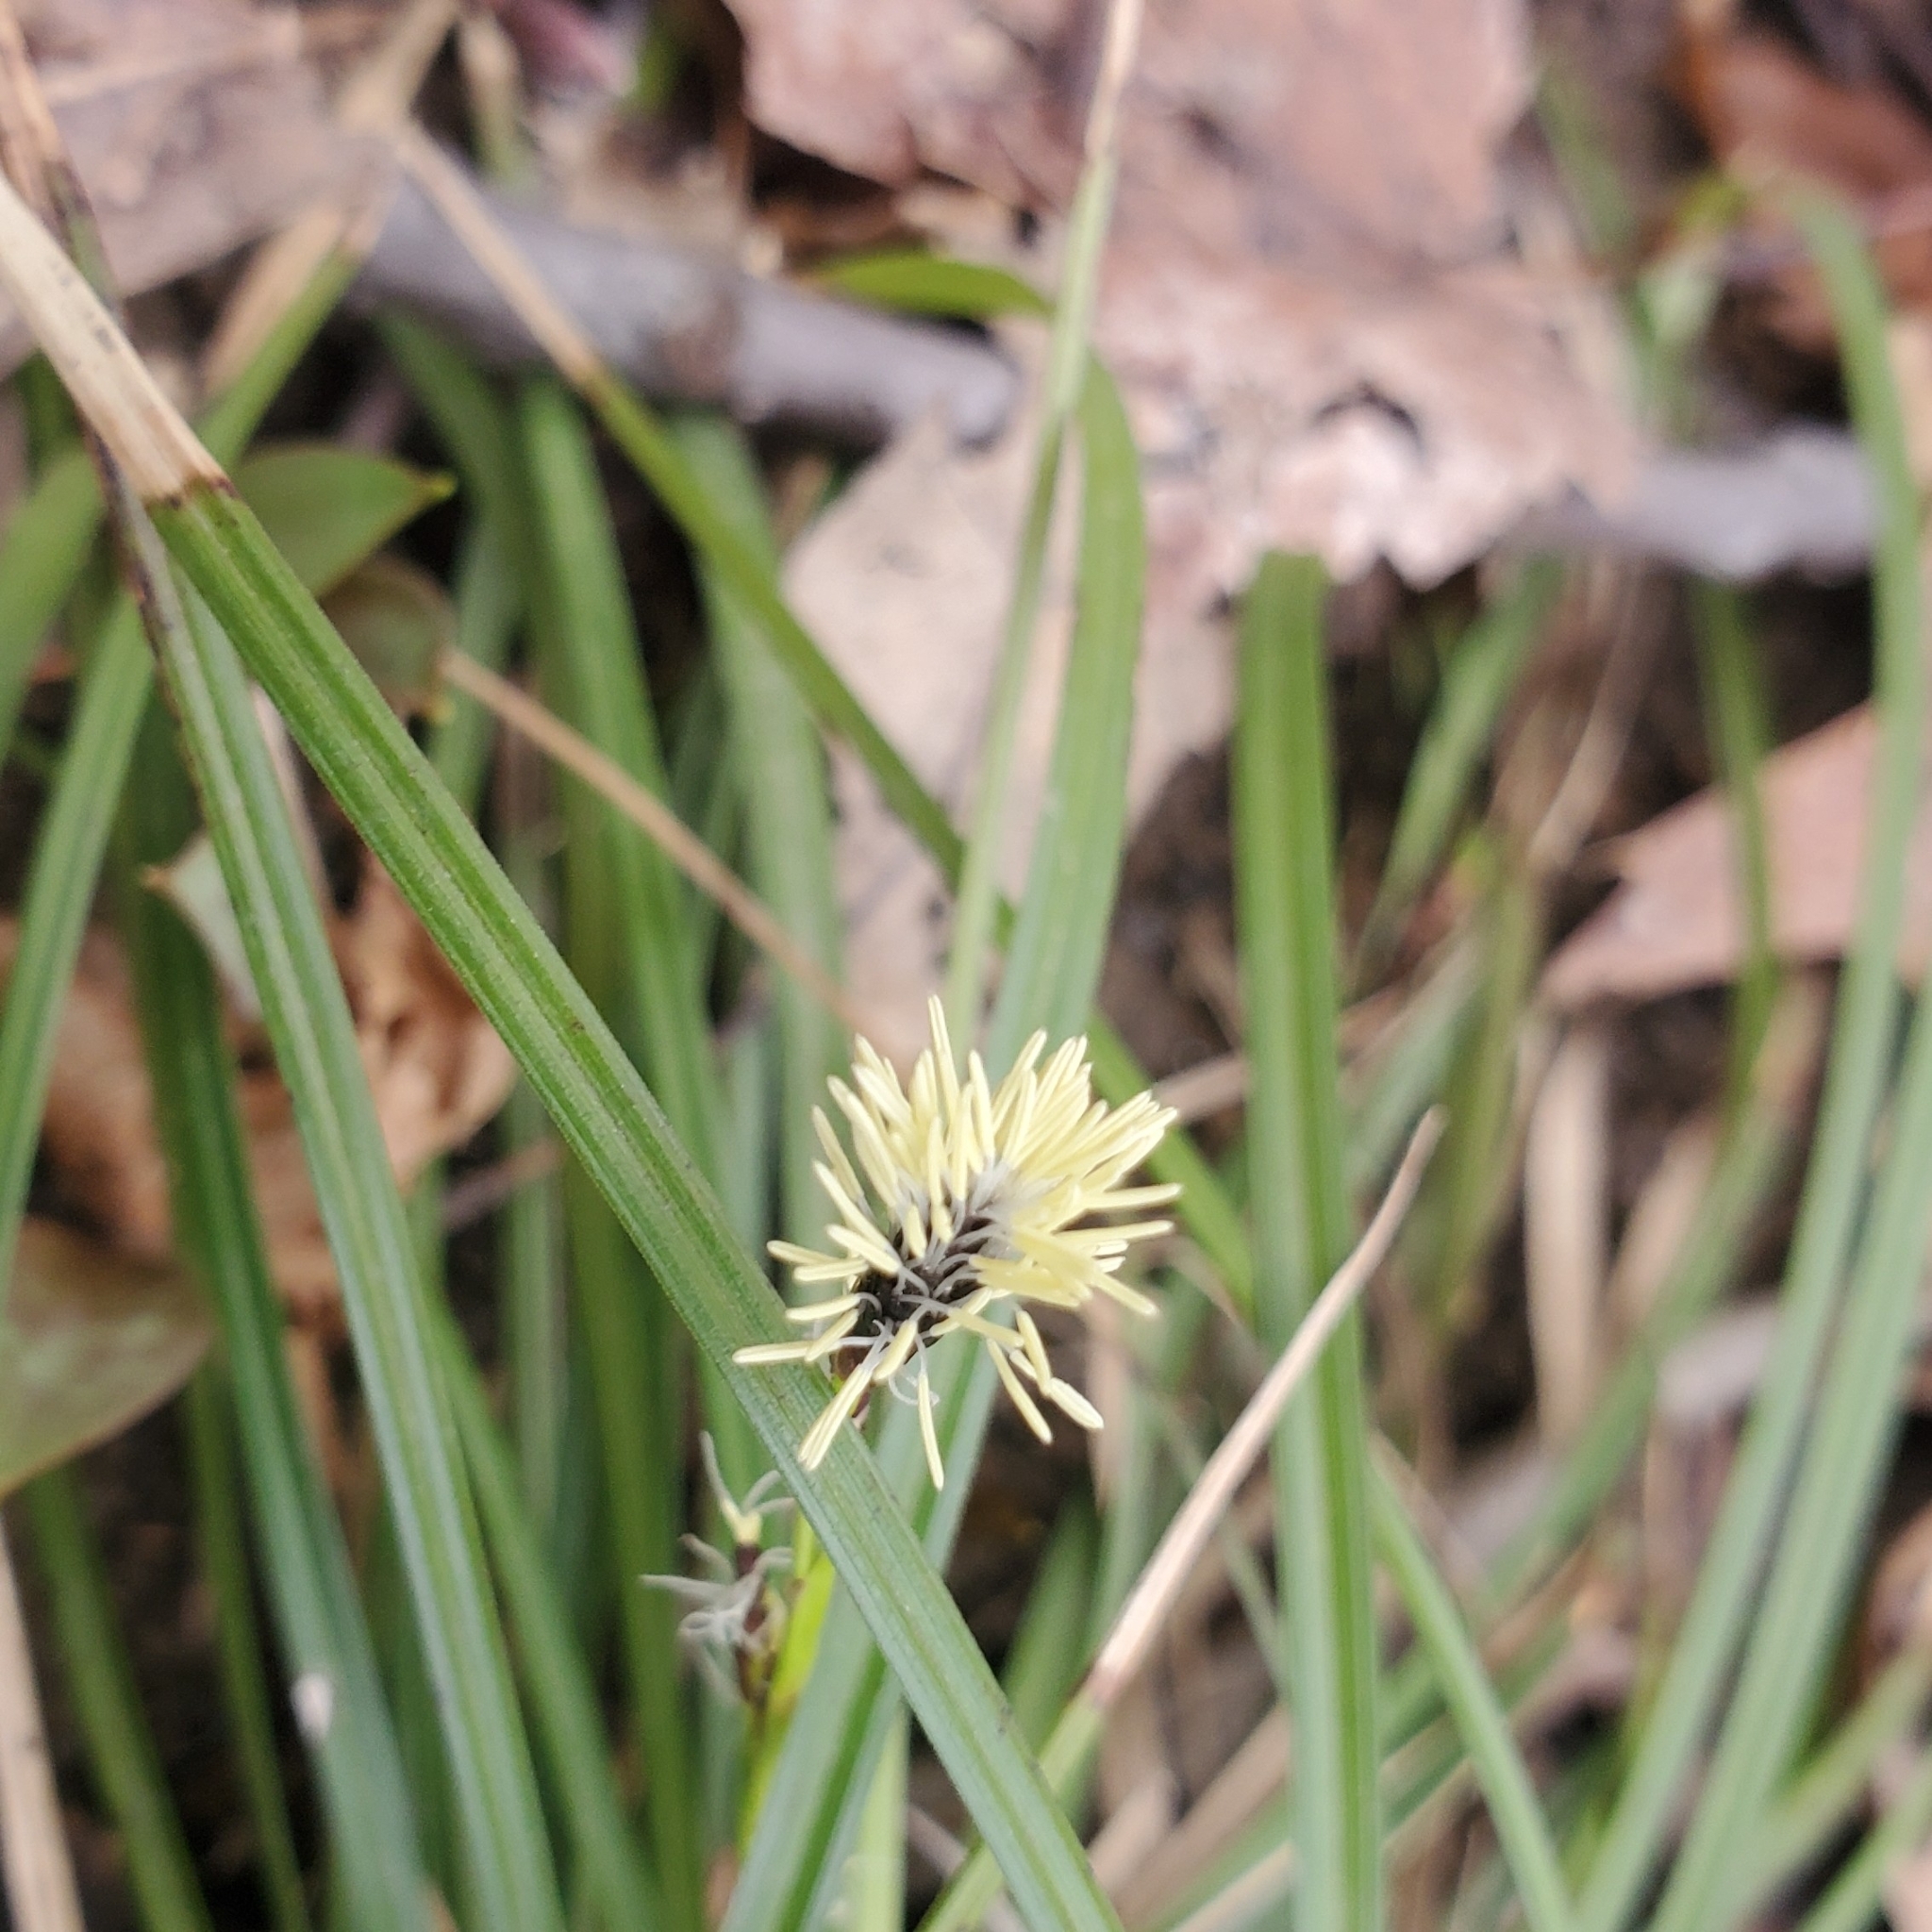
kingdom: Plantae
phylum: Tracheophyta
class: Liliopsida
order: Poales
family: Cyperaceae
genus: Carex
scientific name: Carex pedunculata
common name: Pedunculate sedge
